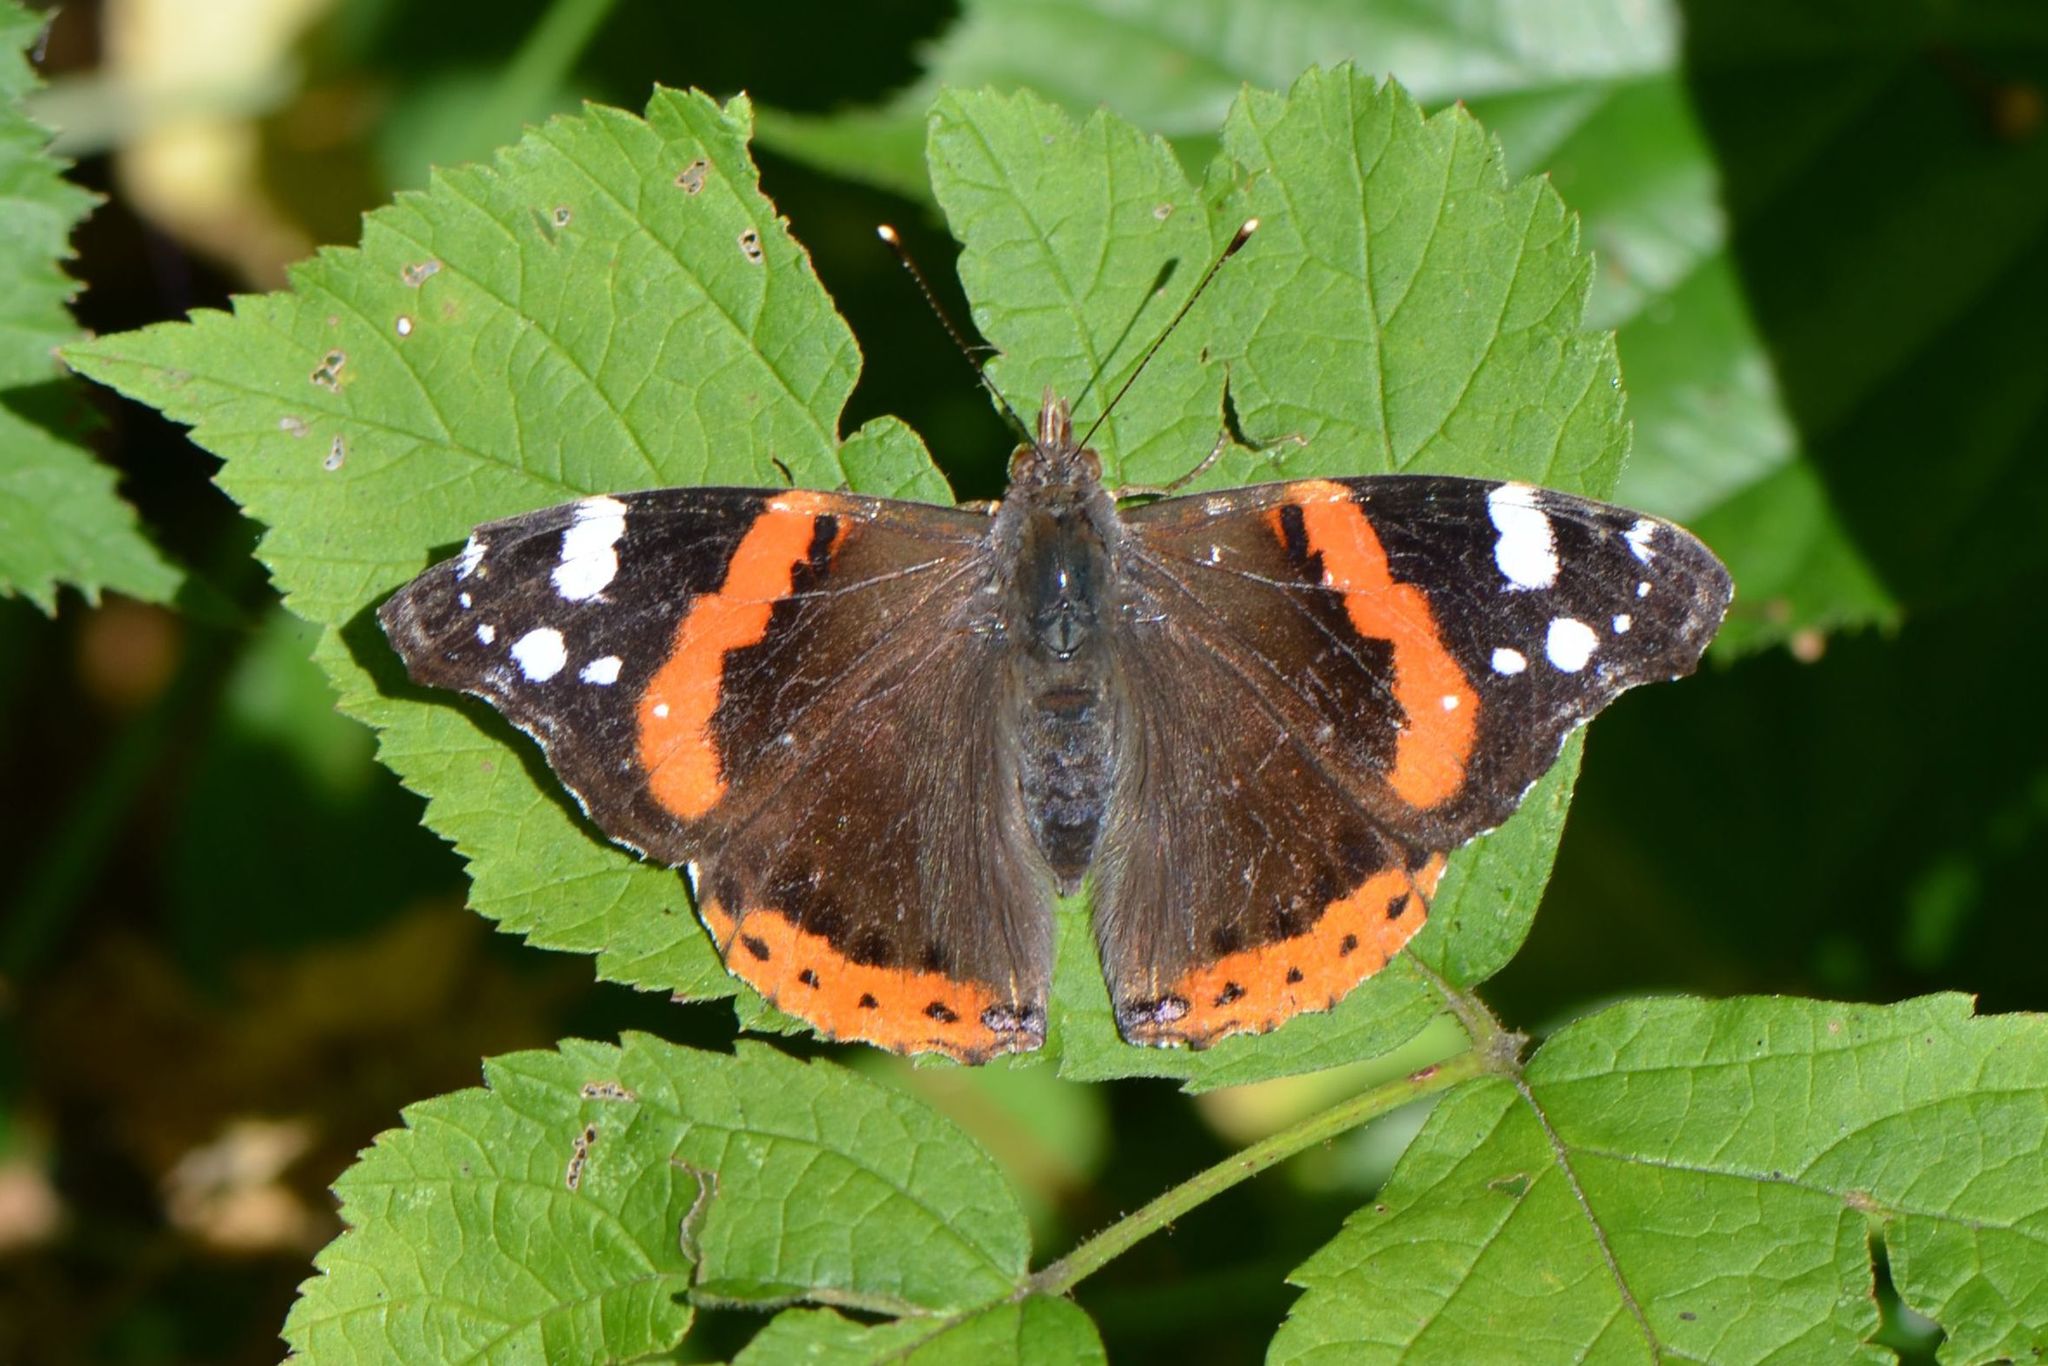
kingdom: Animalia
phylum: Arthropoda
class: Insecta
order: Lepidoptera
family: Nymphalidae
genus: Vanessa
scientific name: Vanessa atalanta
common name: Red admiral
